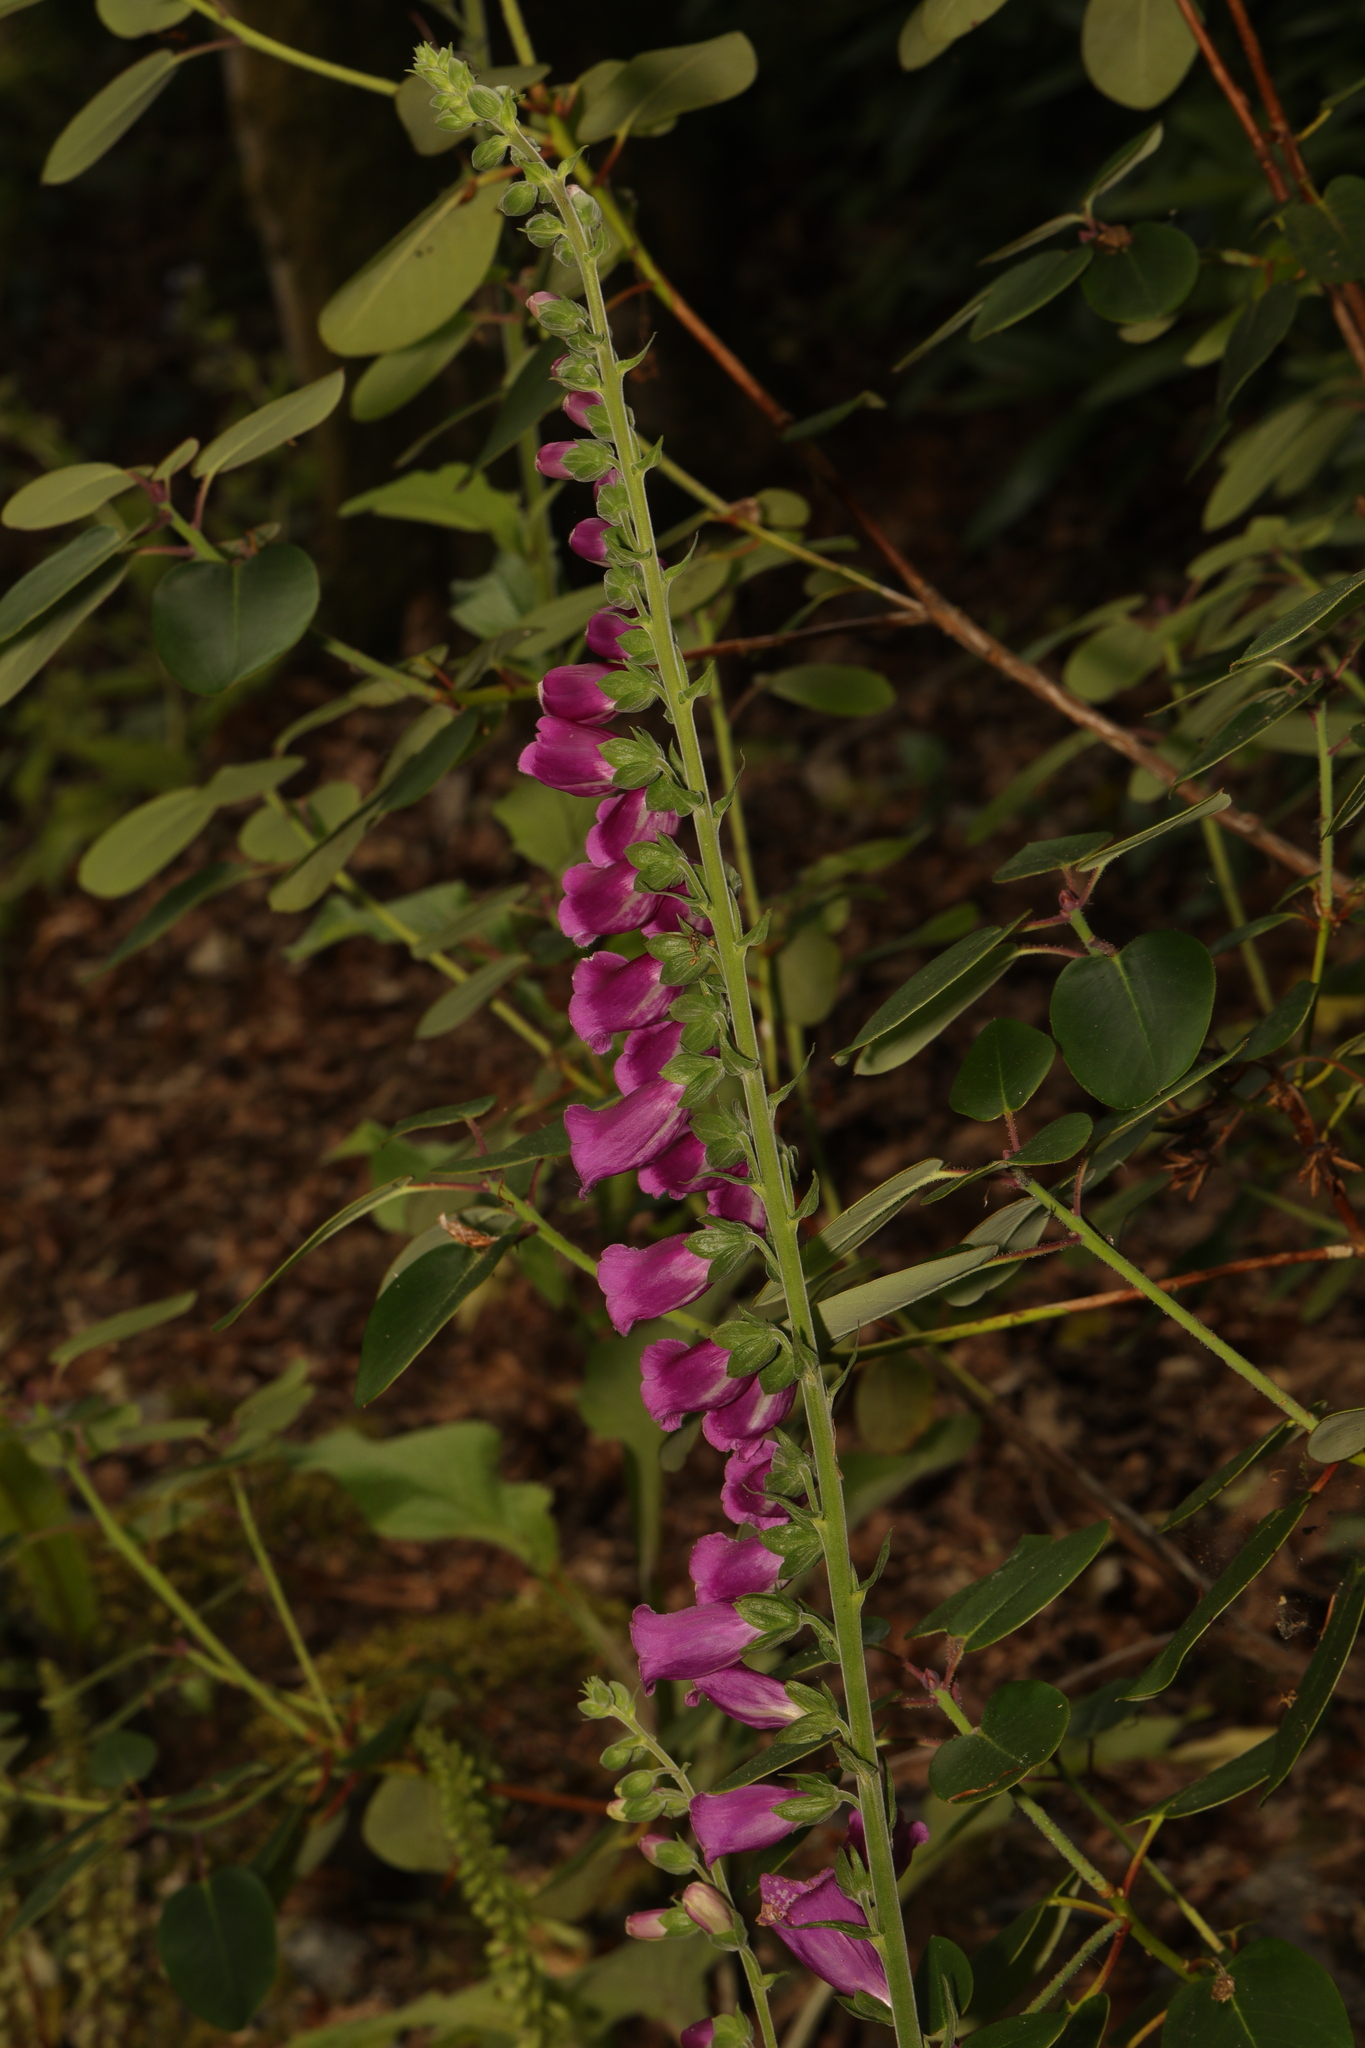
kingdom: Plantae
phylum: Tracheophyta
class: Magnoliopsida
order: Lamiales
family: Plantaginaceae
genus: Digitalis
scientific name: Digitalis purpurea
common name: Foxglove
